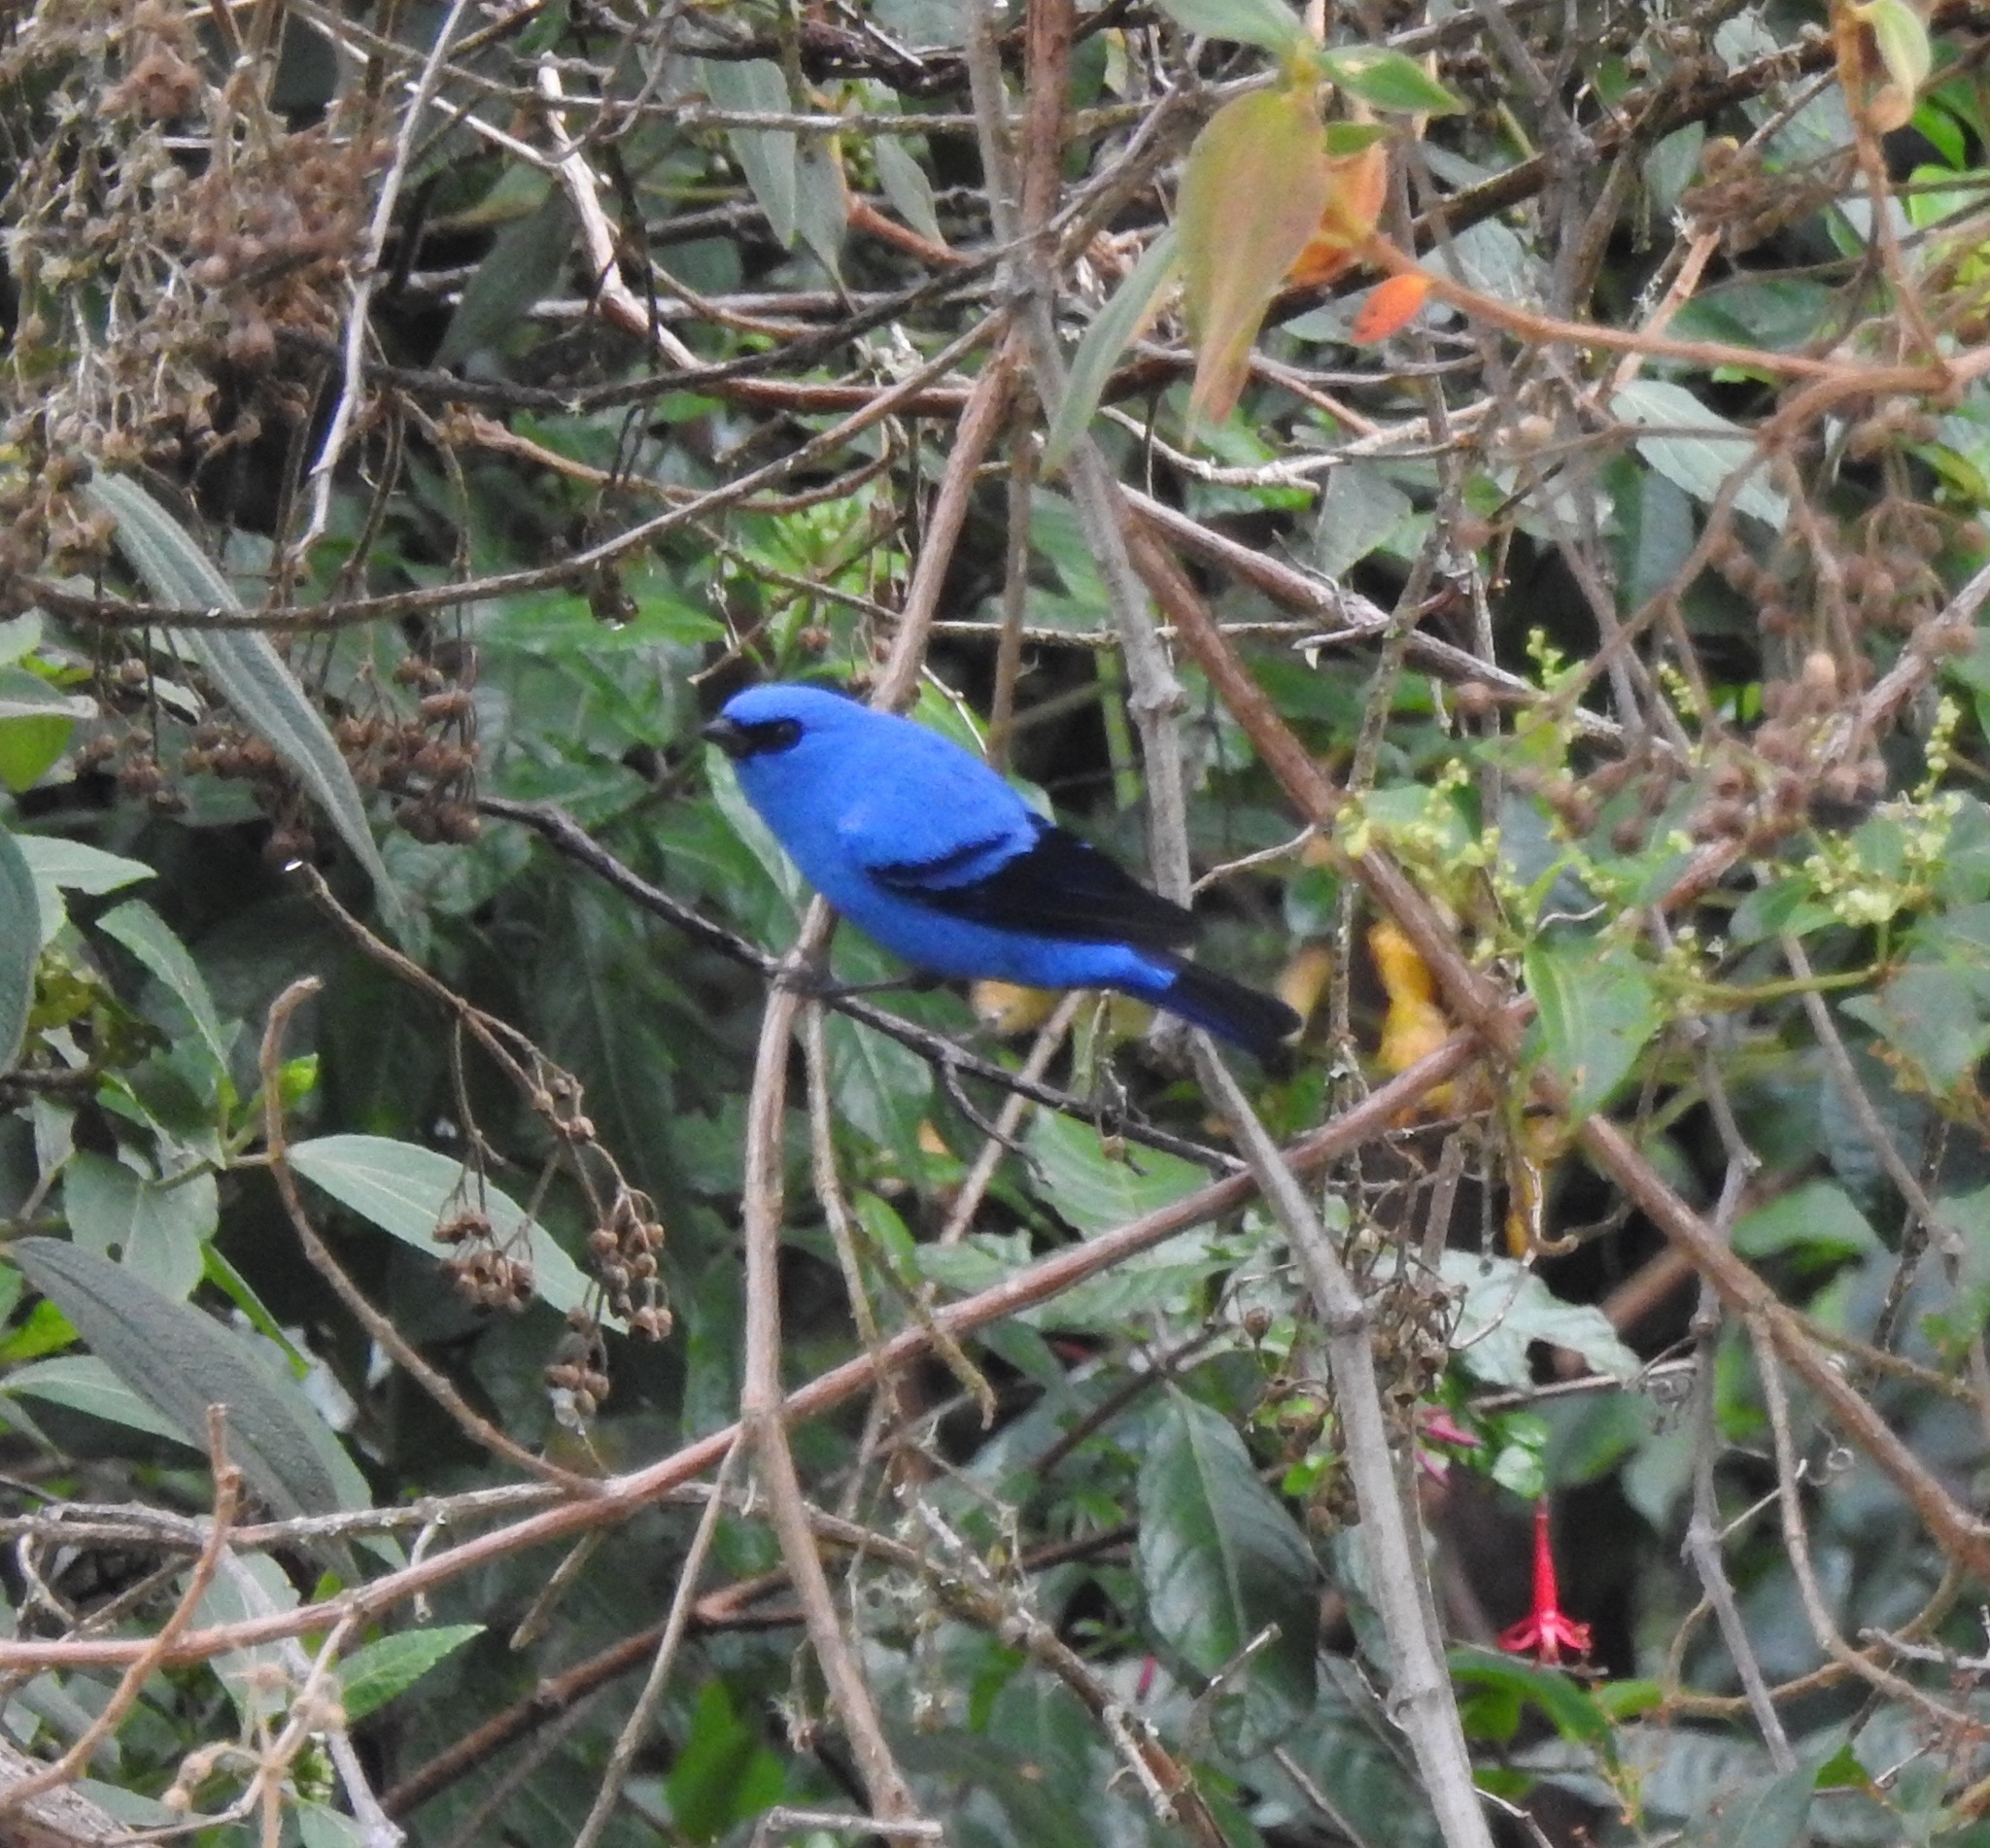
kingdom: Animalia
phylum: Chordata
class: Aves
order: Passeriformes
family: Thraupidae
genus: Tangara
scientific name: Tangara vassorii
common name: Blue-and-black tanager
